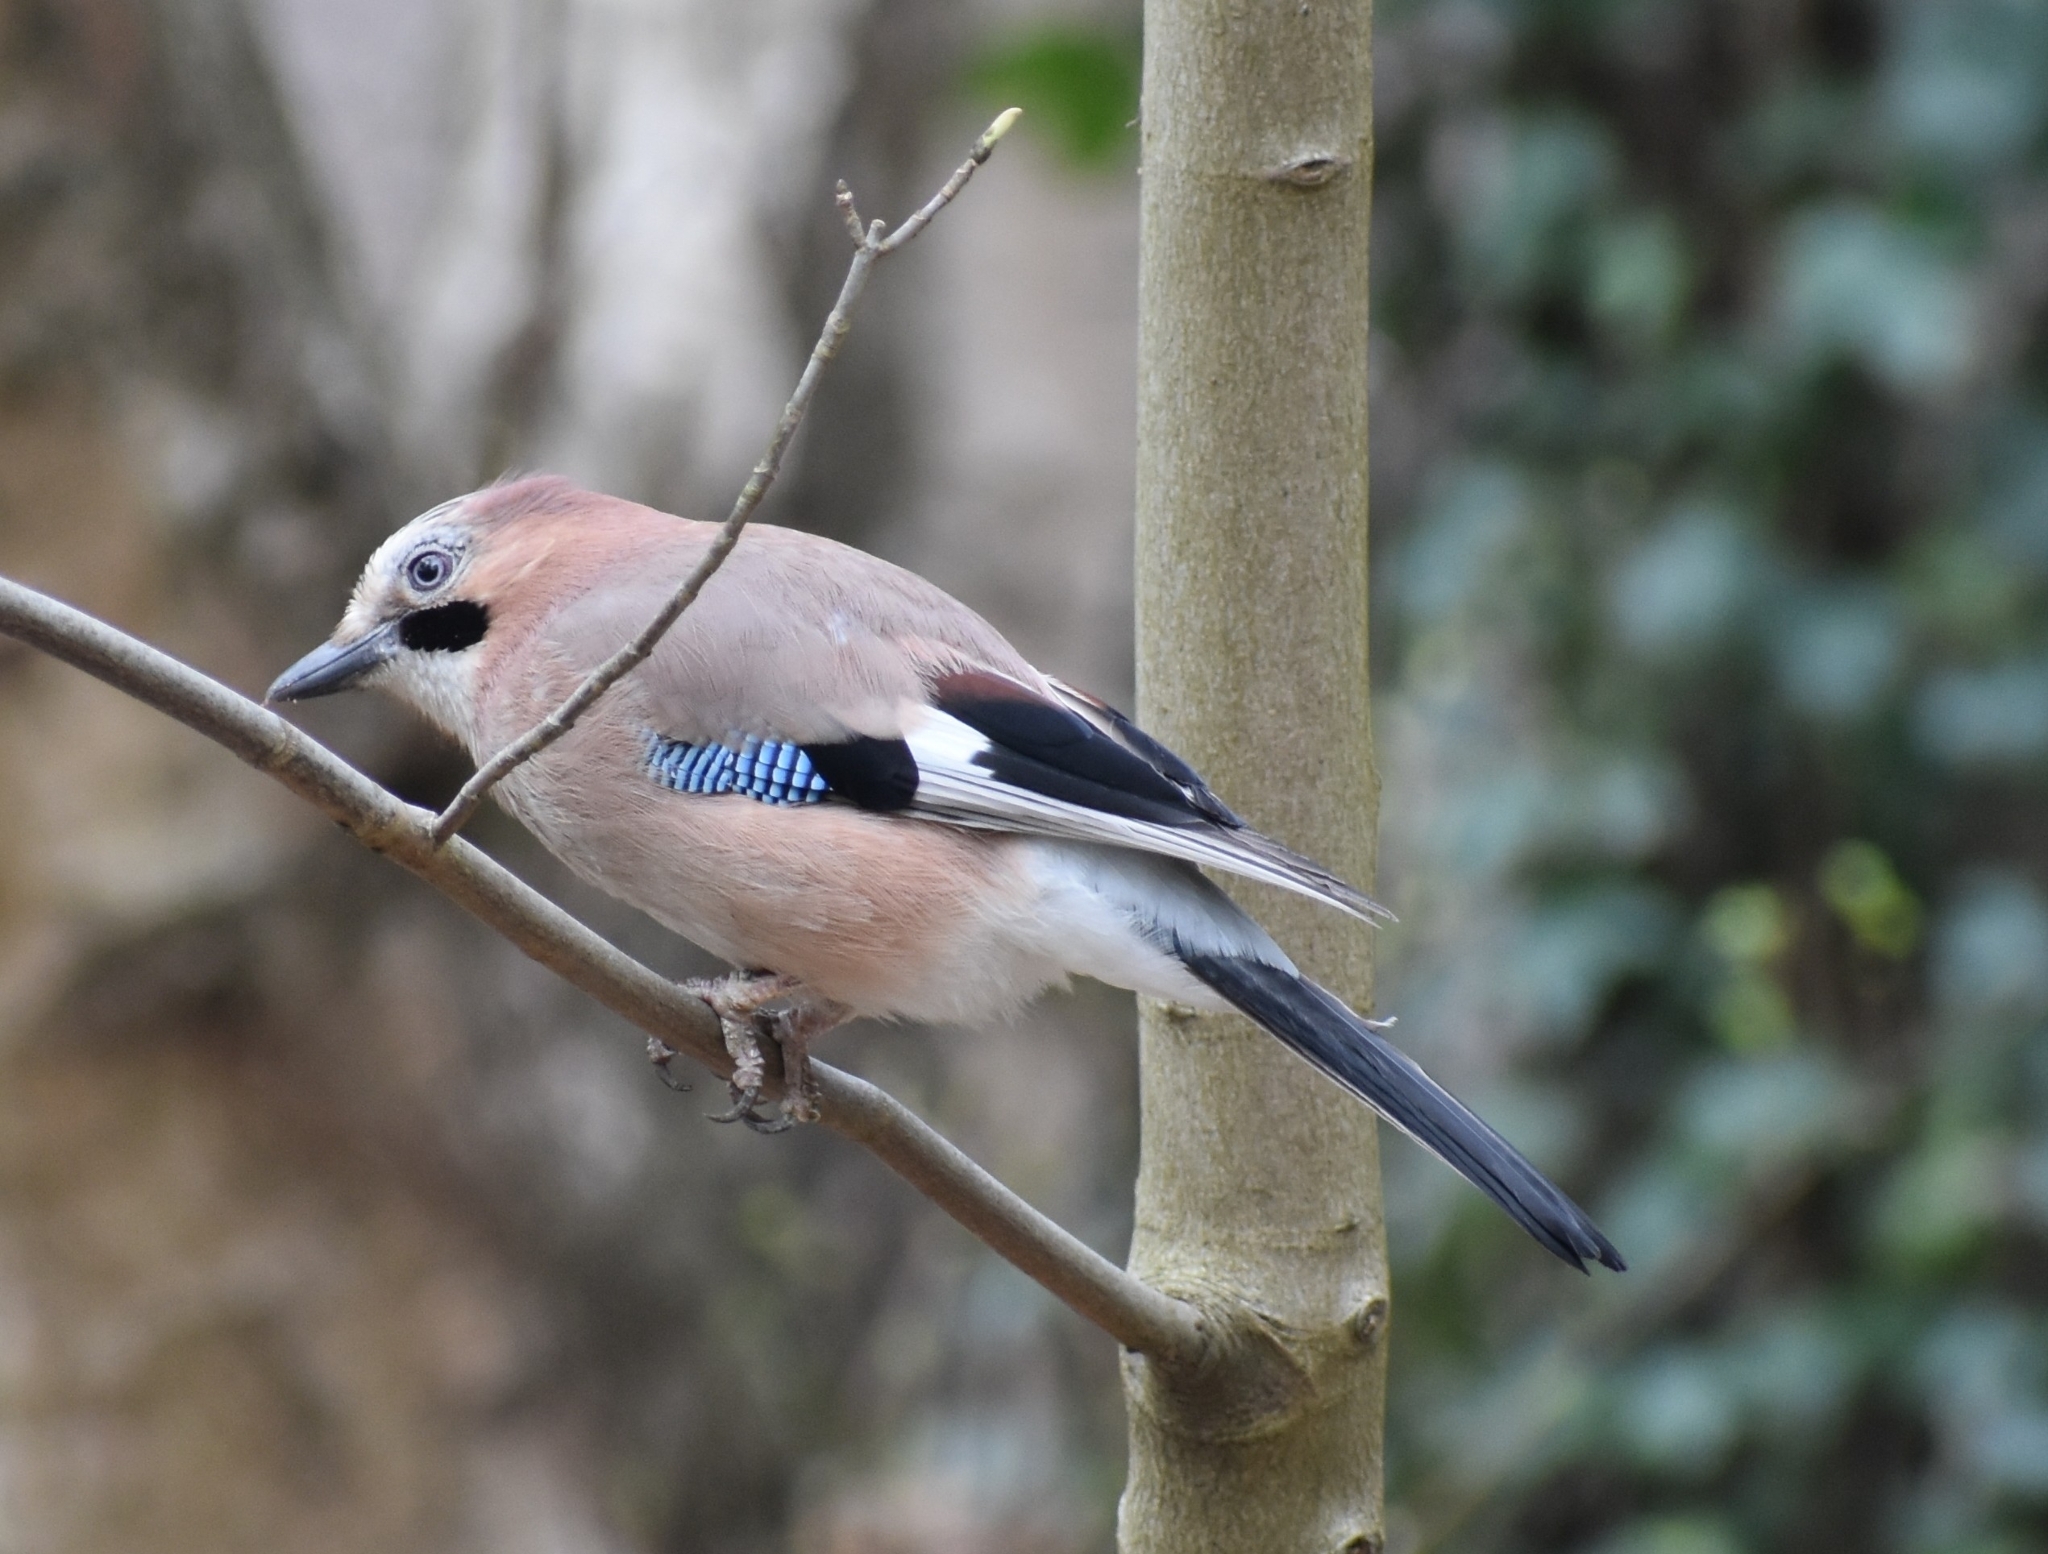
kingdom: Animalia
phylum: Chordata
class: Aves
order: Passeriformes
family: Corvidae
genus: Garrulus
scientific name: Garrulus glandarius
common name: Eurasian jay
